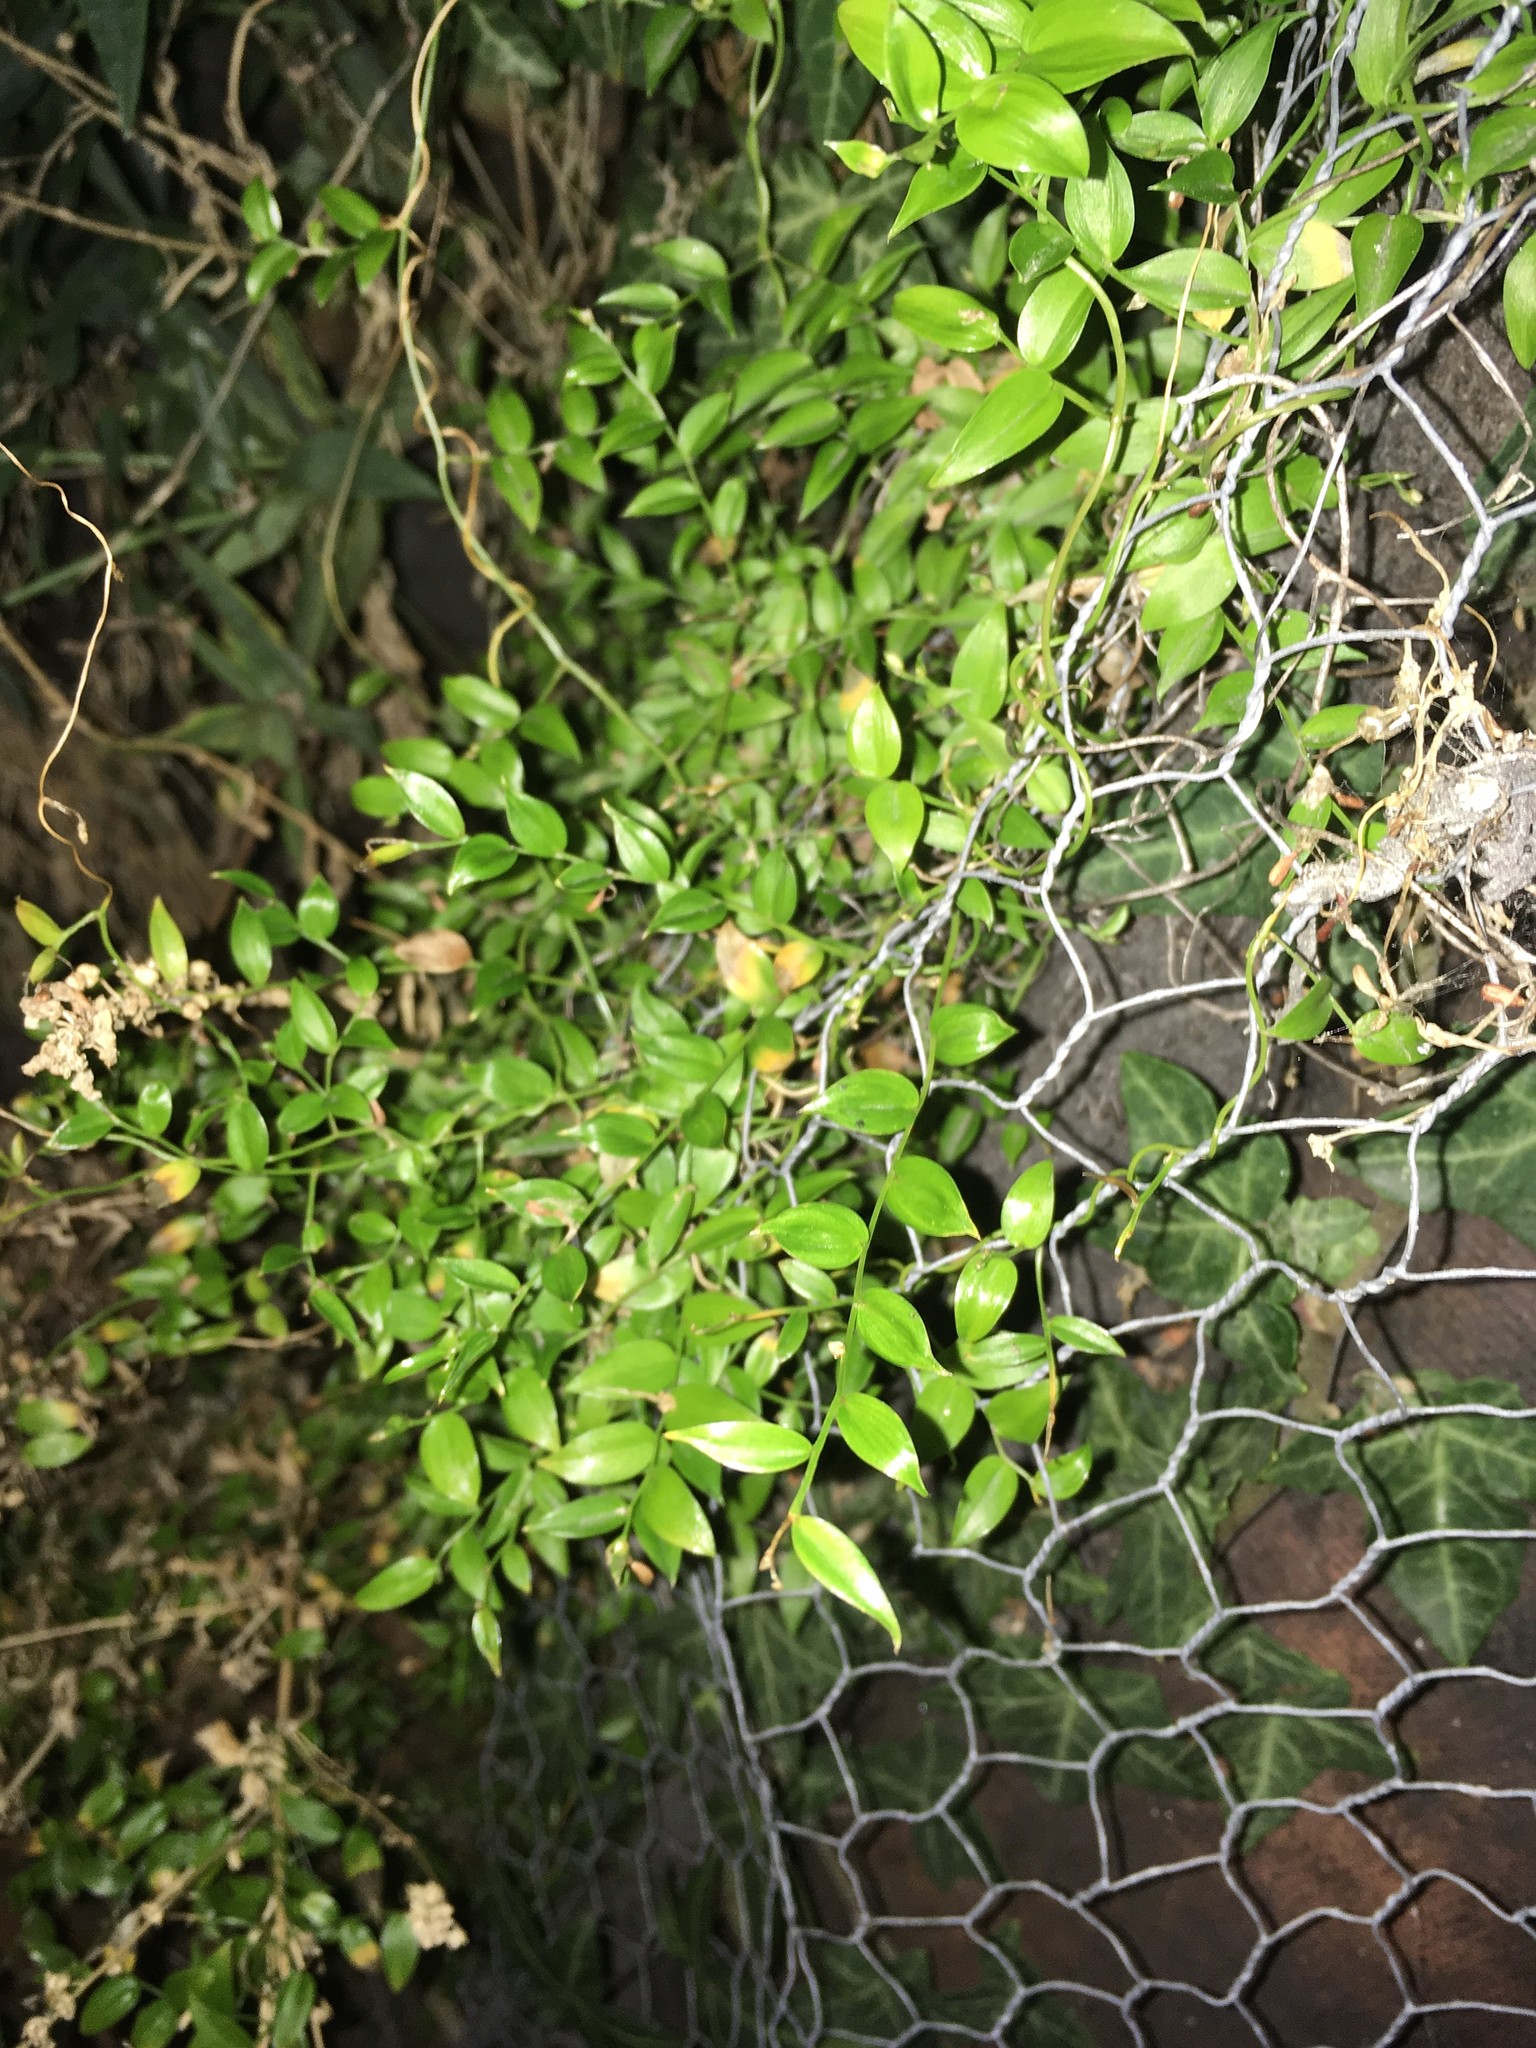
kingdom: Plantae
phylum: Tracheophyta
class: Liliopsida
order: Asparagales
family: Asparagaceae
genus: Asparagus
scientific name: Asparagus asparagoides
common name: African asparagus fern
